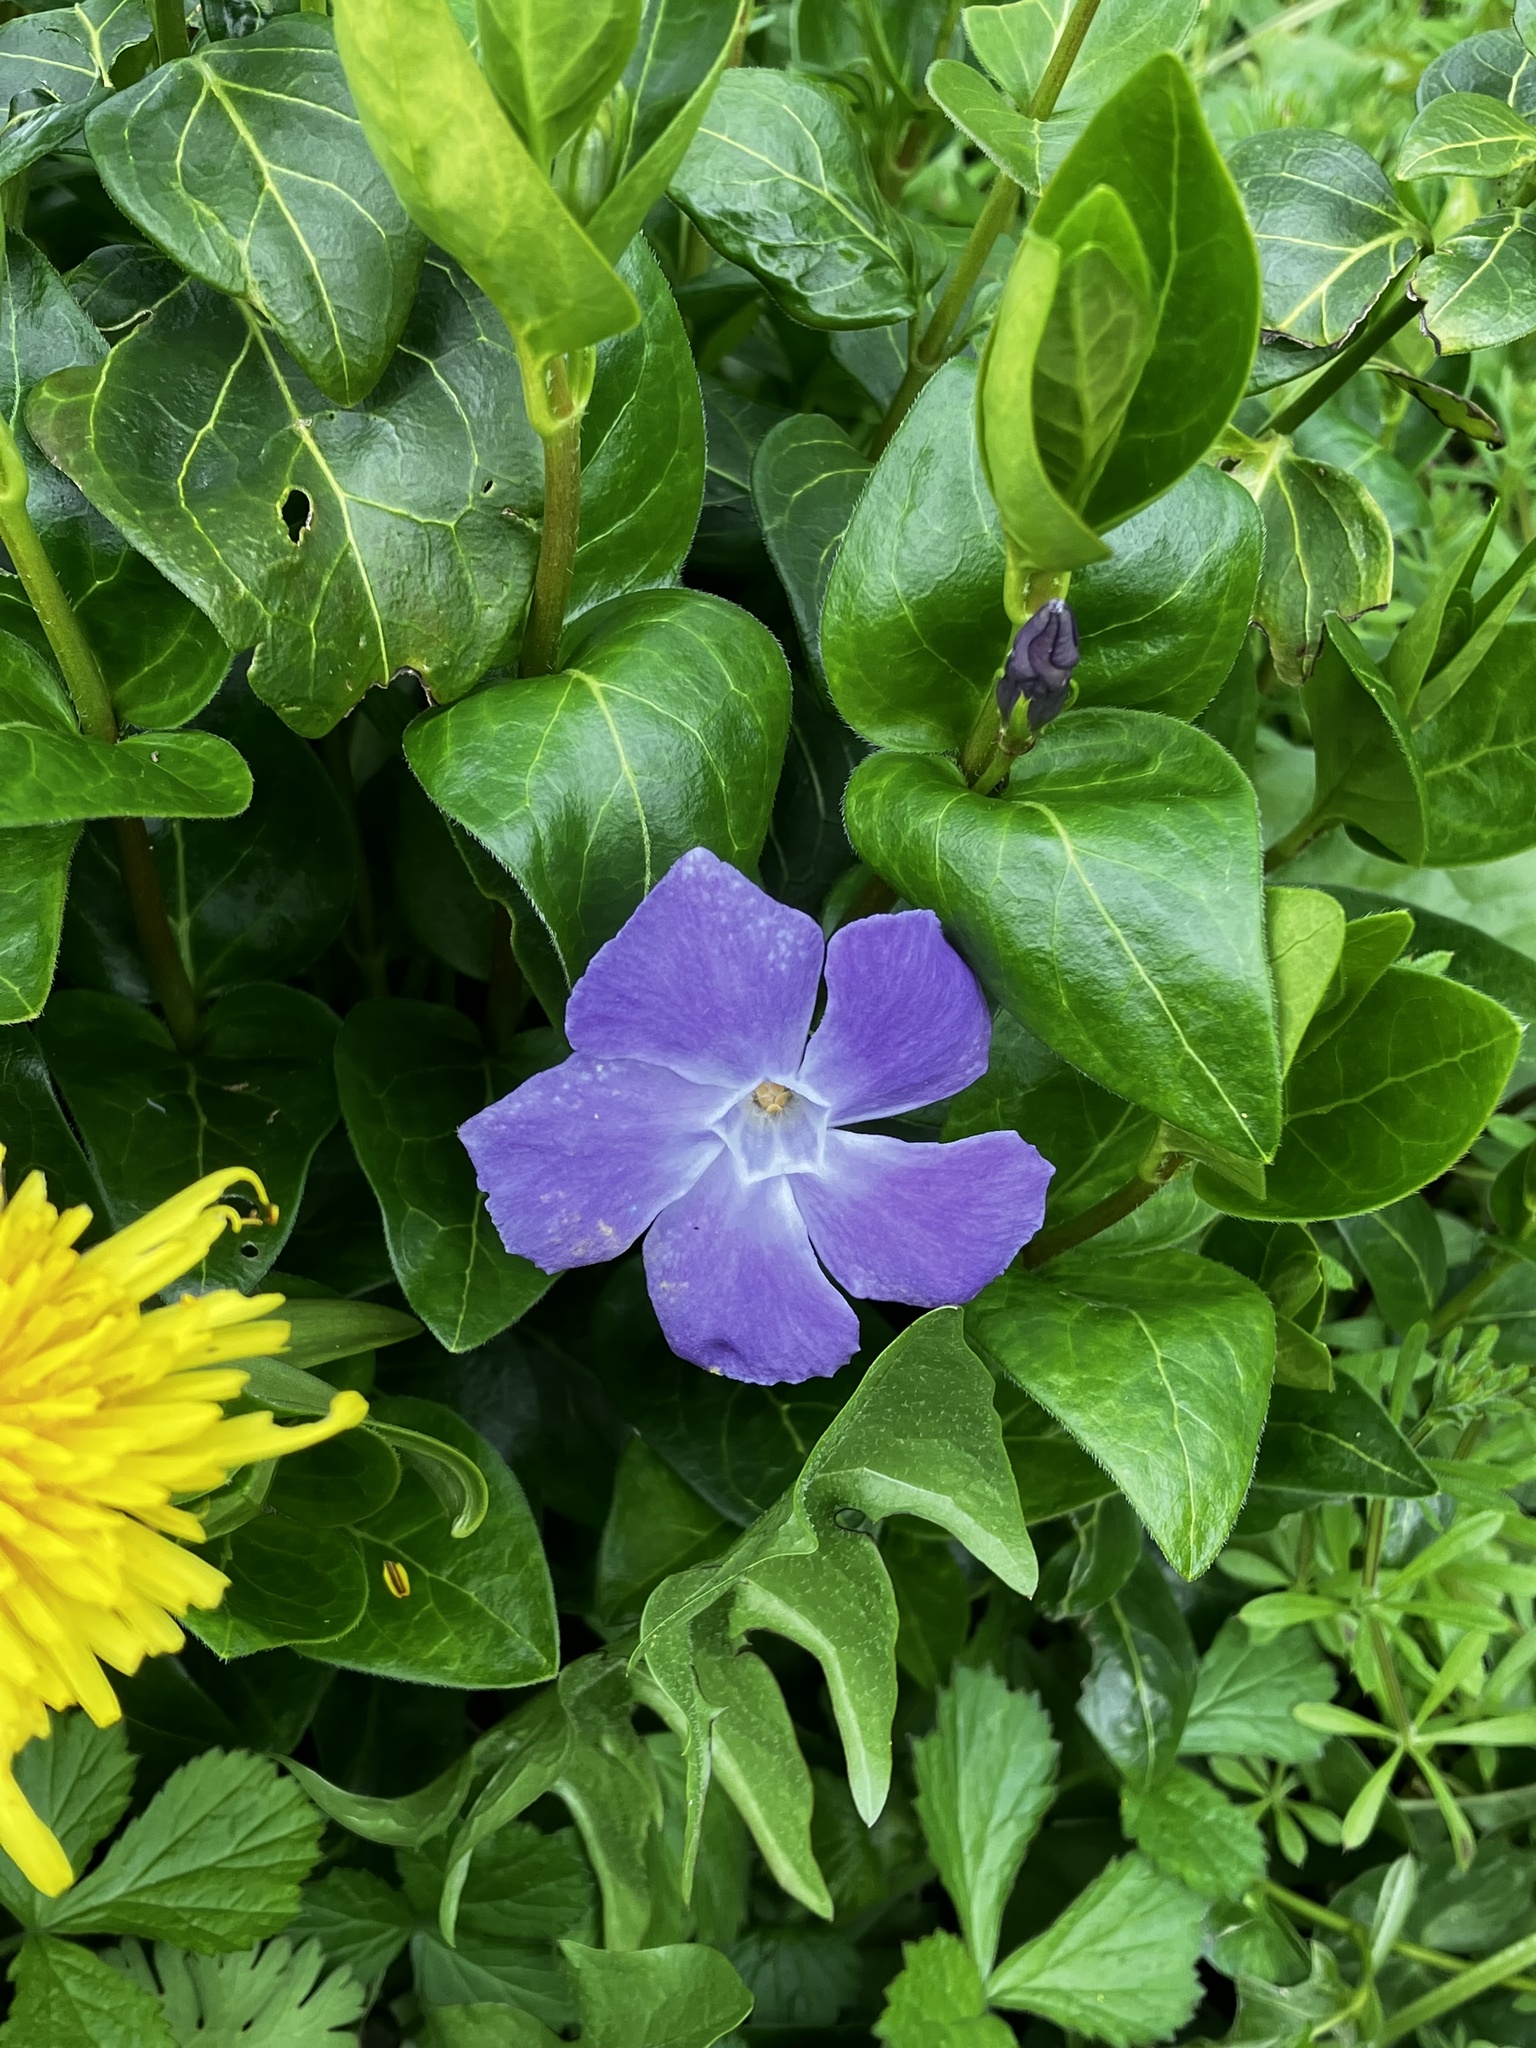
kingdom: Plantae
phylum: Tracheophyta
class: Magnoliopsida
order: Gentianales
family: Apocynaceae
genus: Vinca
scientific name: Vinca major
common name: Greater periwinkle
